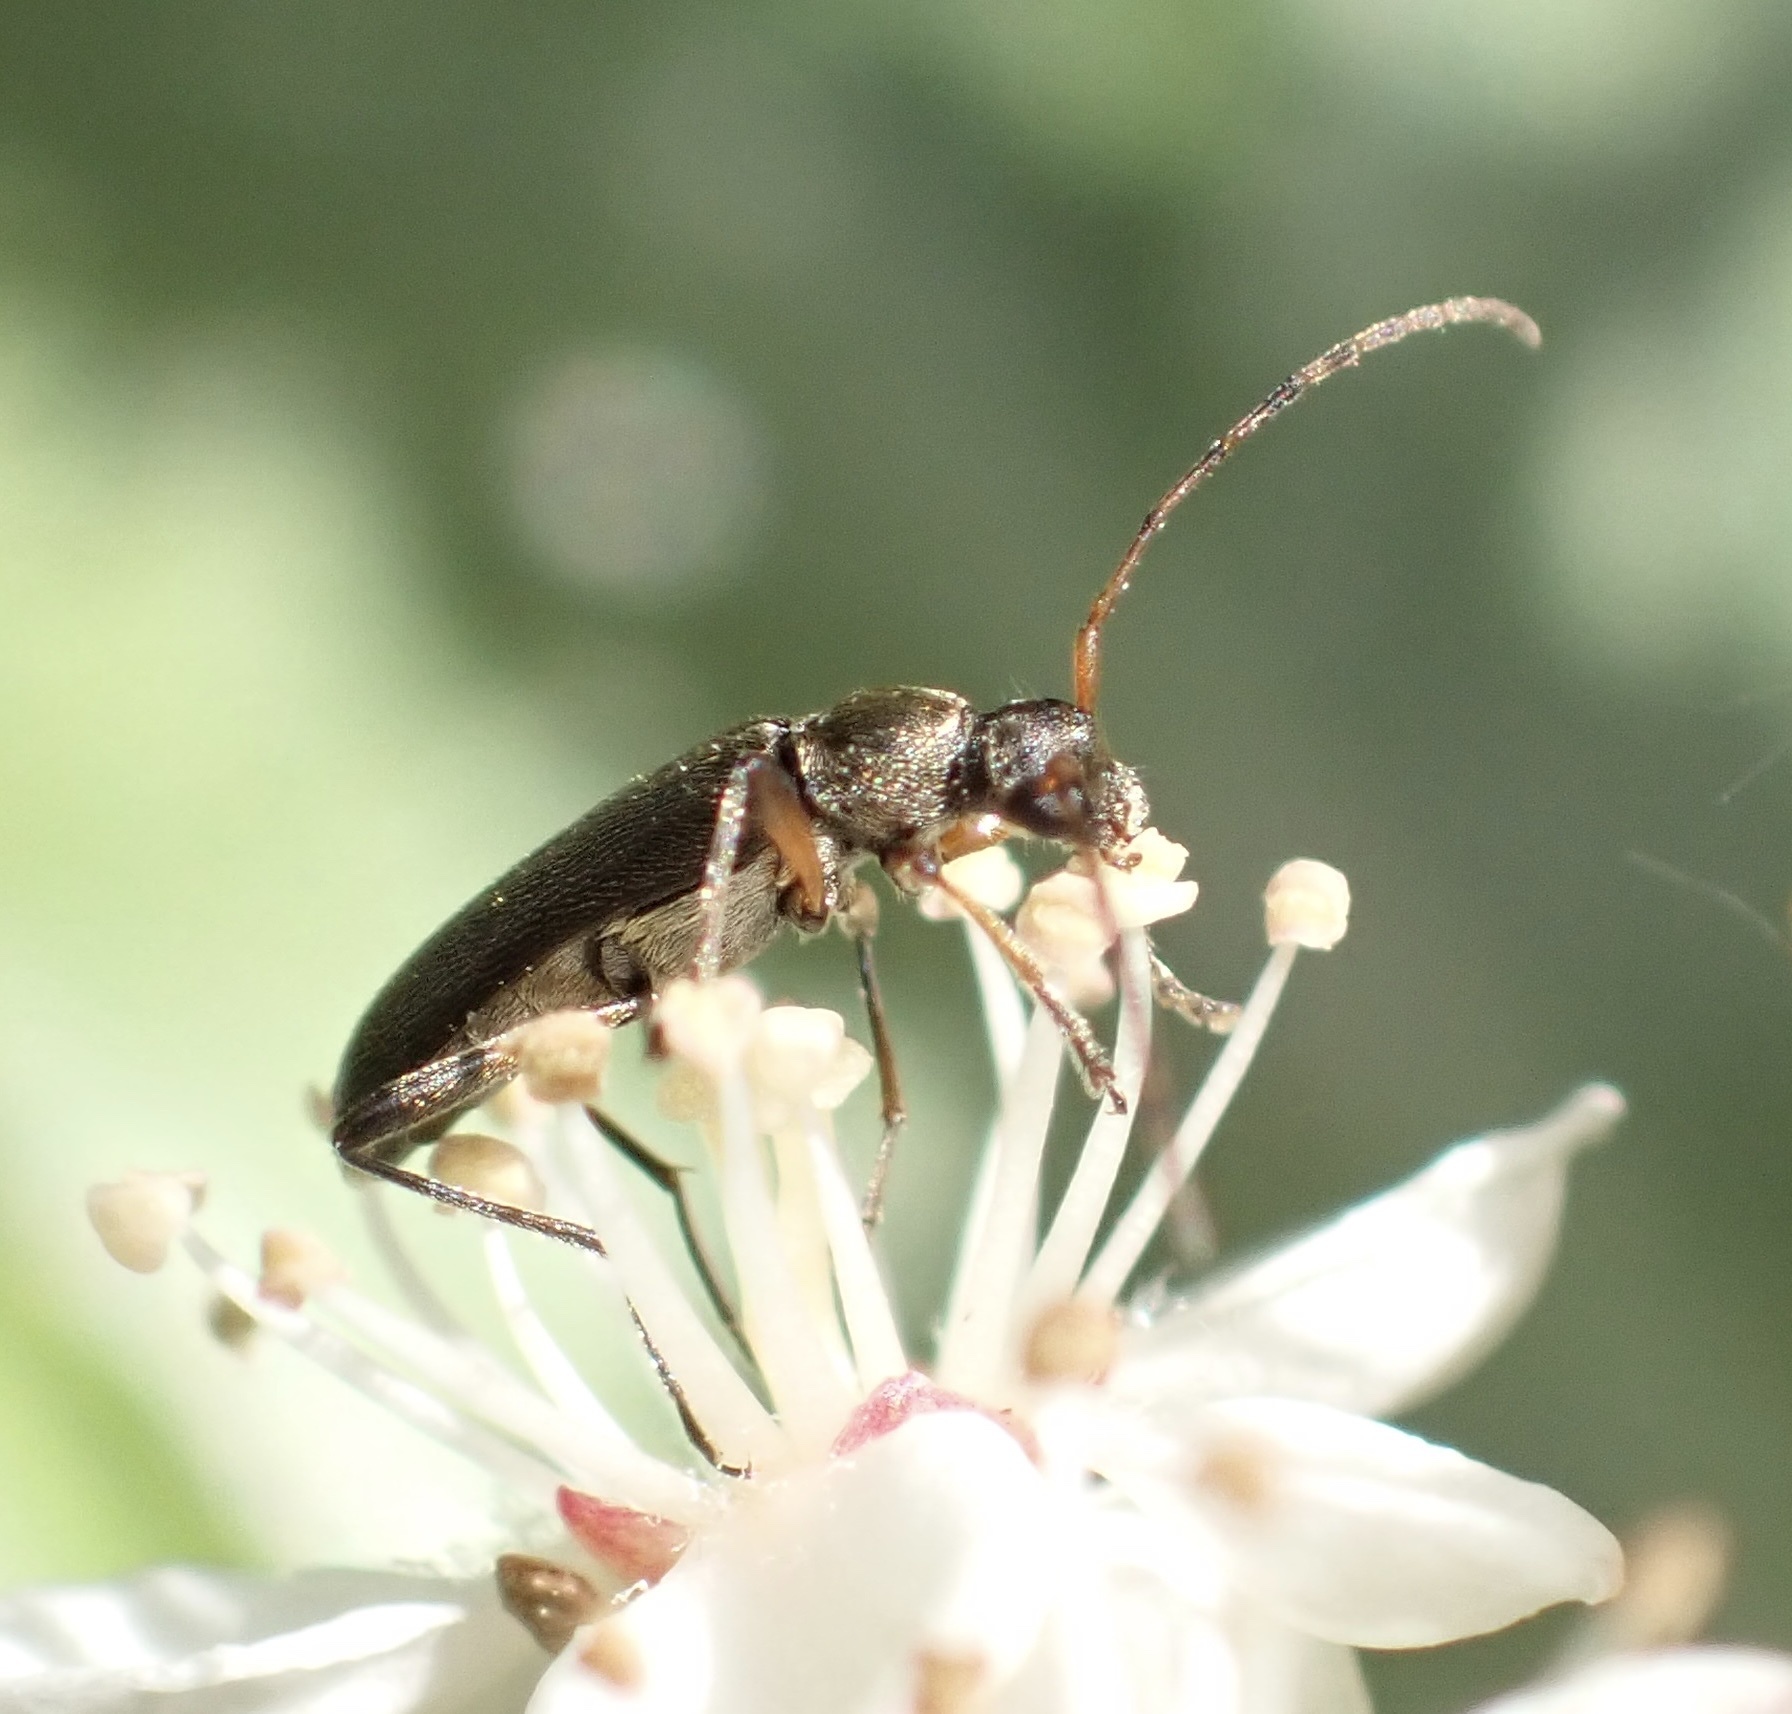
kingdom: Animalia
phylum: Arthropoda
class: Insecta
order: Coleoptera
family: Cerambycidae
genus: Grammoptera
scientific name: Grammoptera ruficornis
